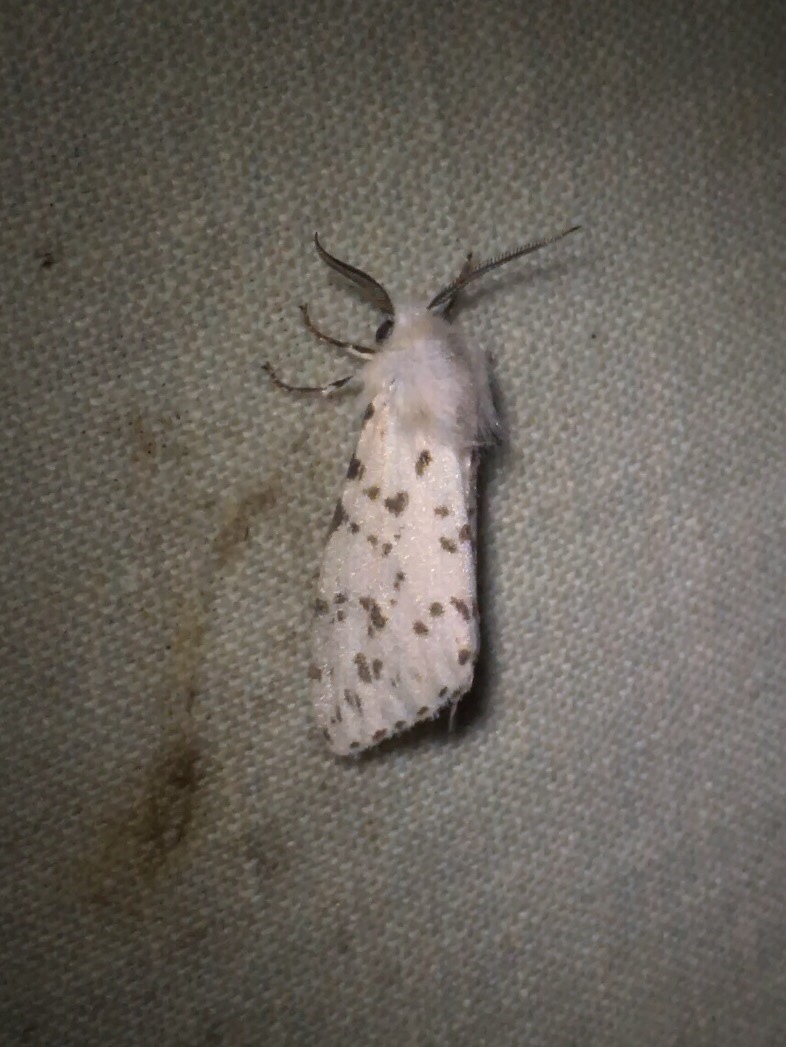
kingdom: Animalia
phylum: Arthropoda
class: Insecta
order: Lepidoptera
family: Erebidae
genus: Hyphantria
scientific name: Hyphantria cunea
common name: American white moth
